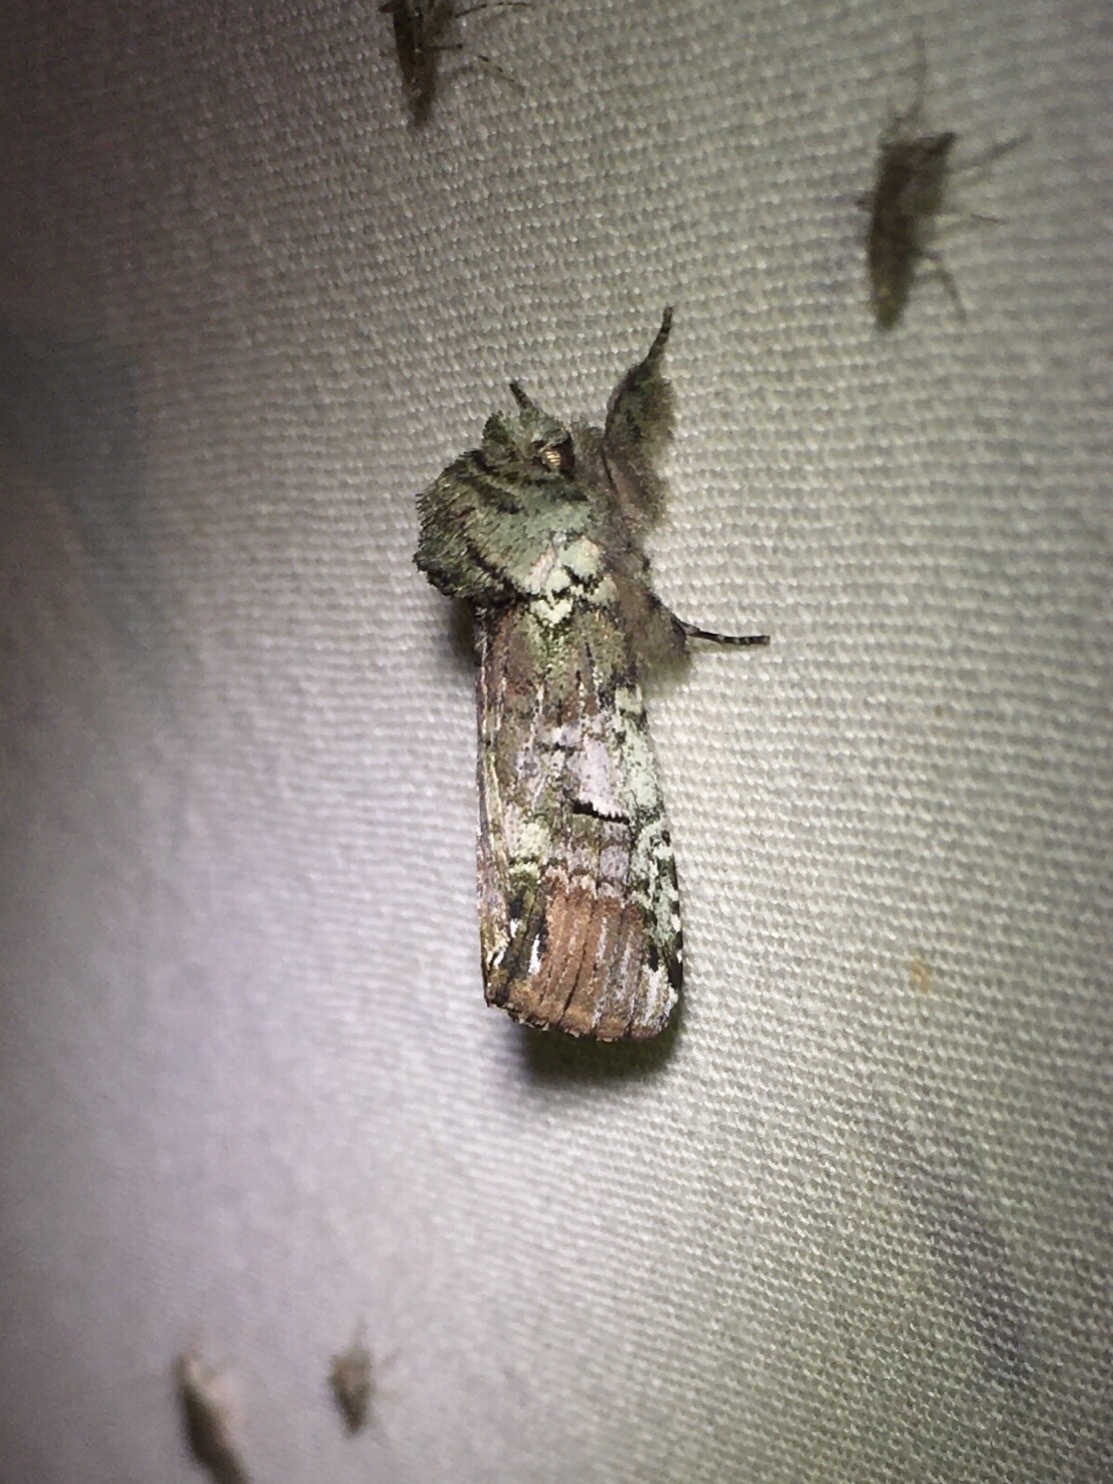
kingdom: Animalia
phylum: Arthropoda
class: Insecta
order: Lepidoptera
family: Notodontidae
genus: Schizura
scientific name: Schizura
